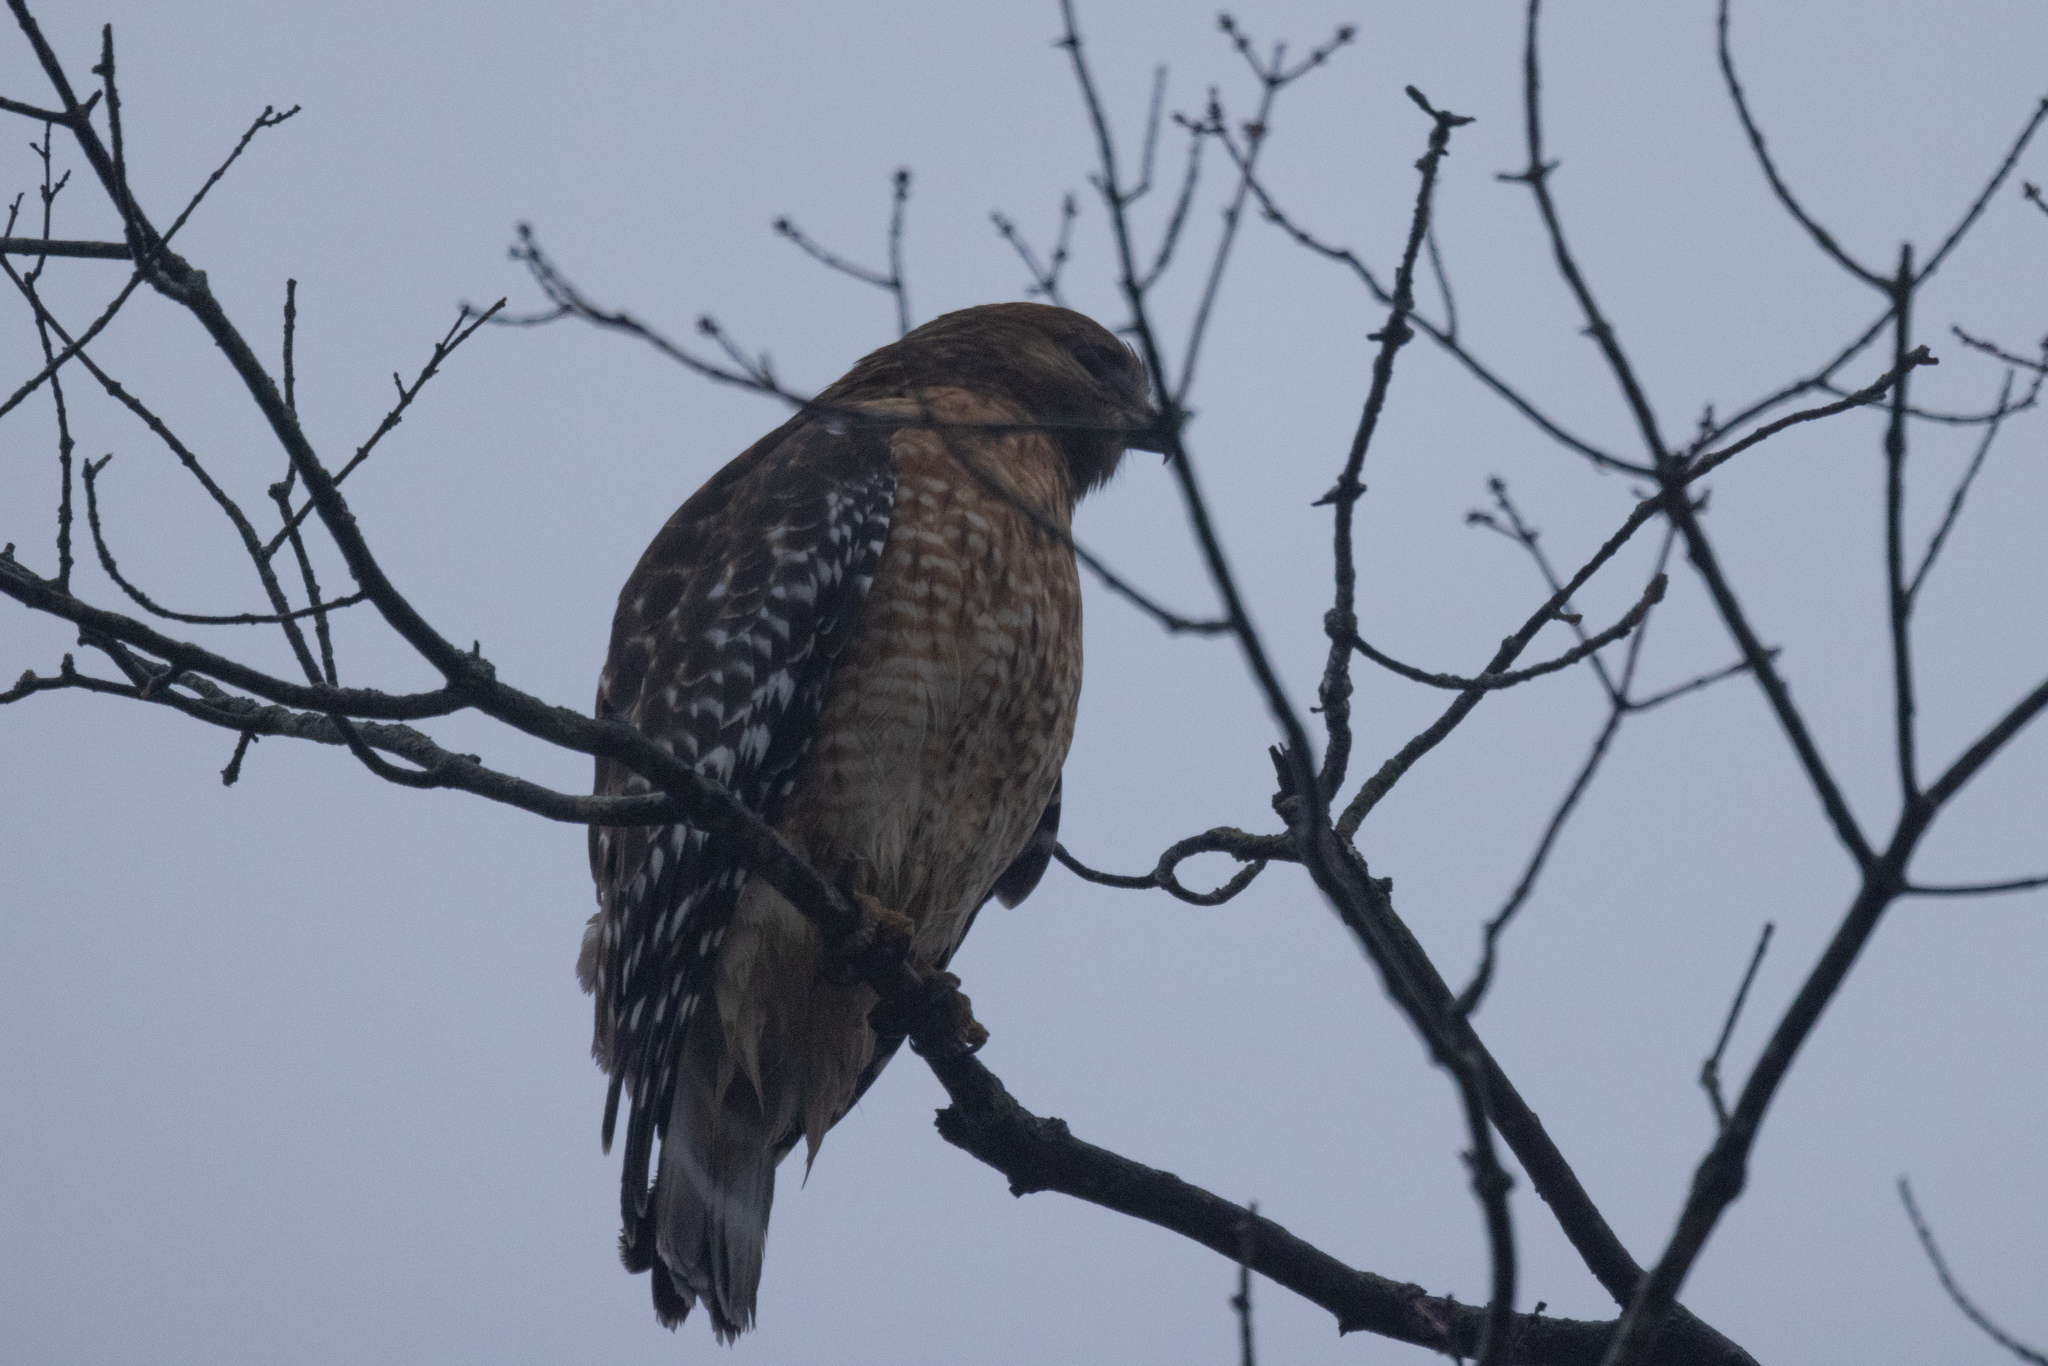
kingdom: Animalia
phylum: Chordata
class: Aves
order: Accipitriformes
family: Accipitridae
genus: Buteo
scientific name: Buteo lineatus
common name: Red-shouldered hawk
